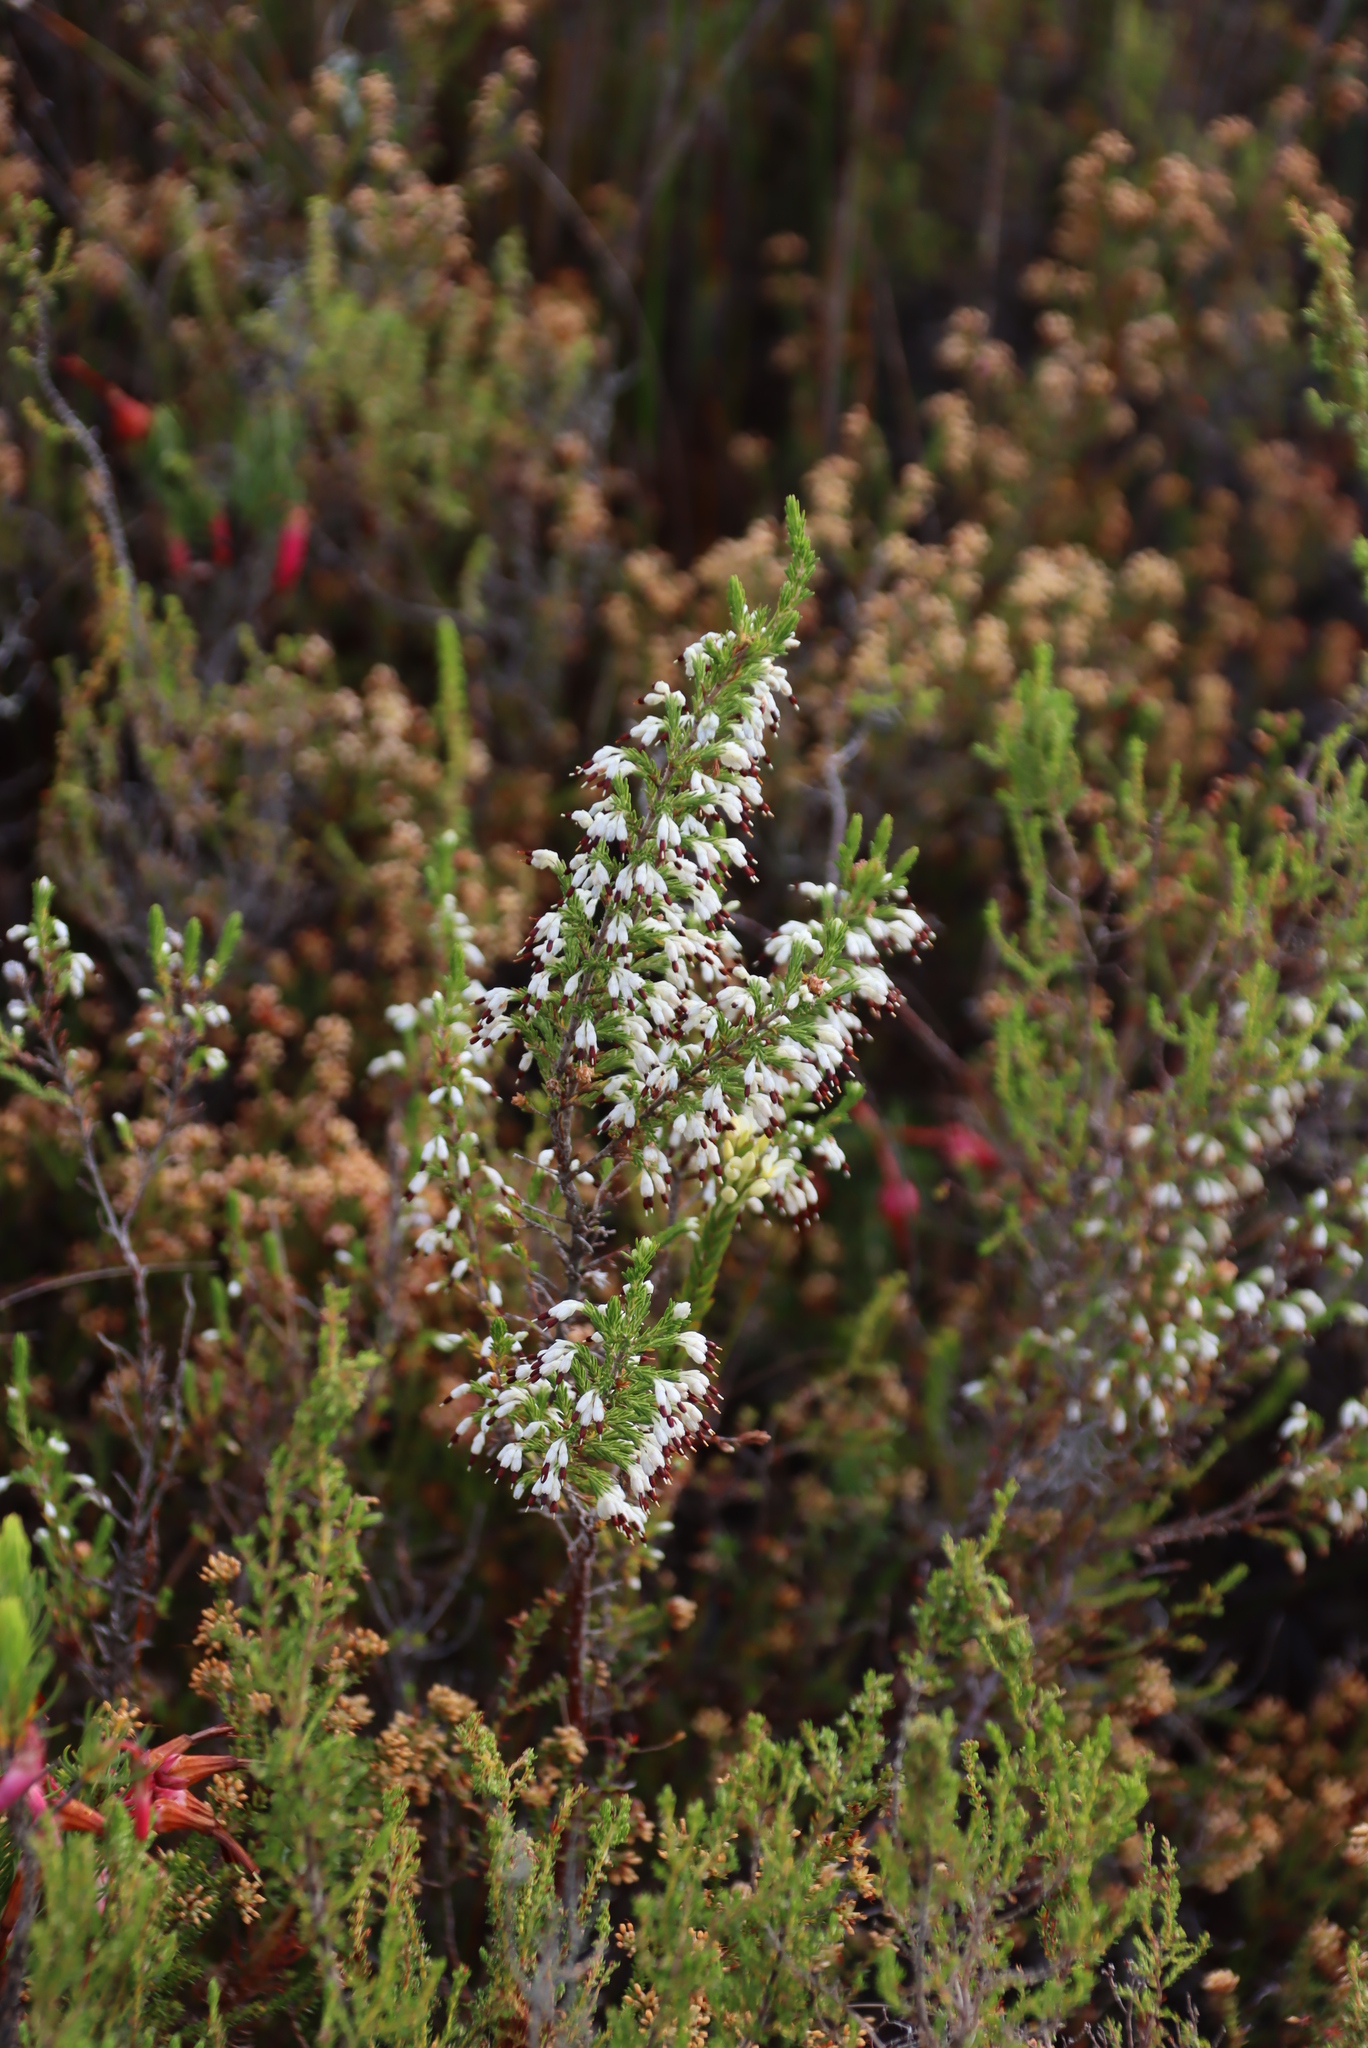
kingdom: Plantae
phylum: Tracheophyta
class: Magnoliopsida
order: Ericales
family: Ericaceae
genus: Erica
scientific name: Erica imbricata
